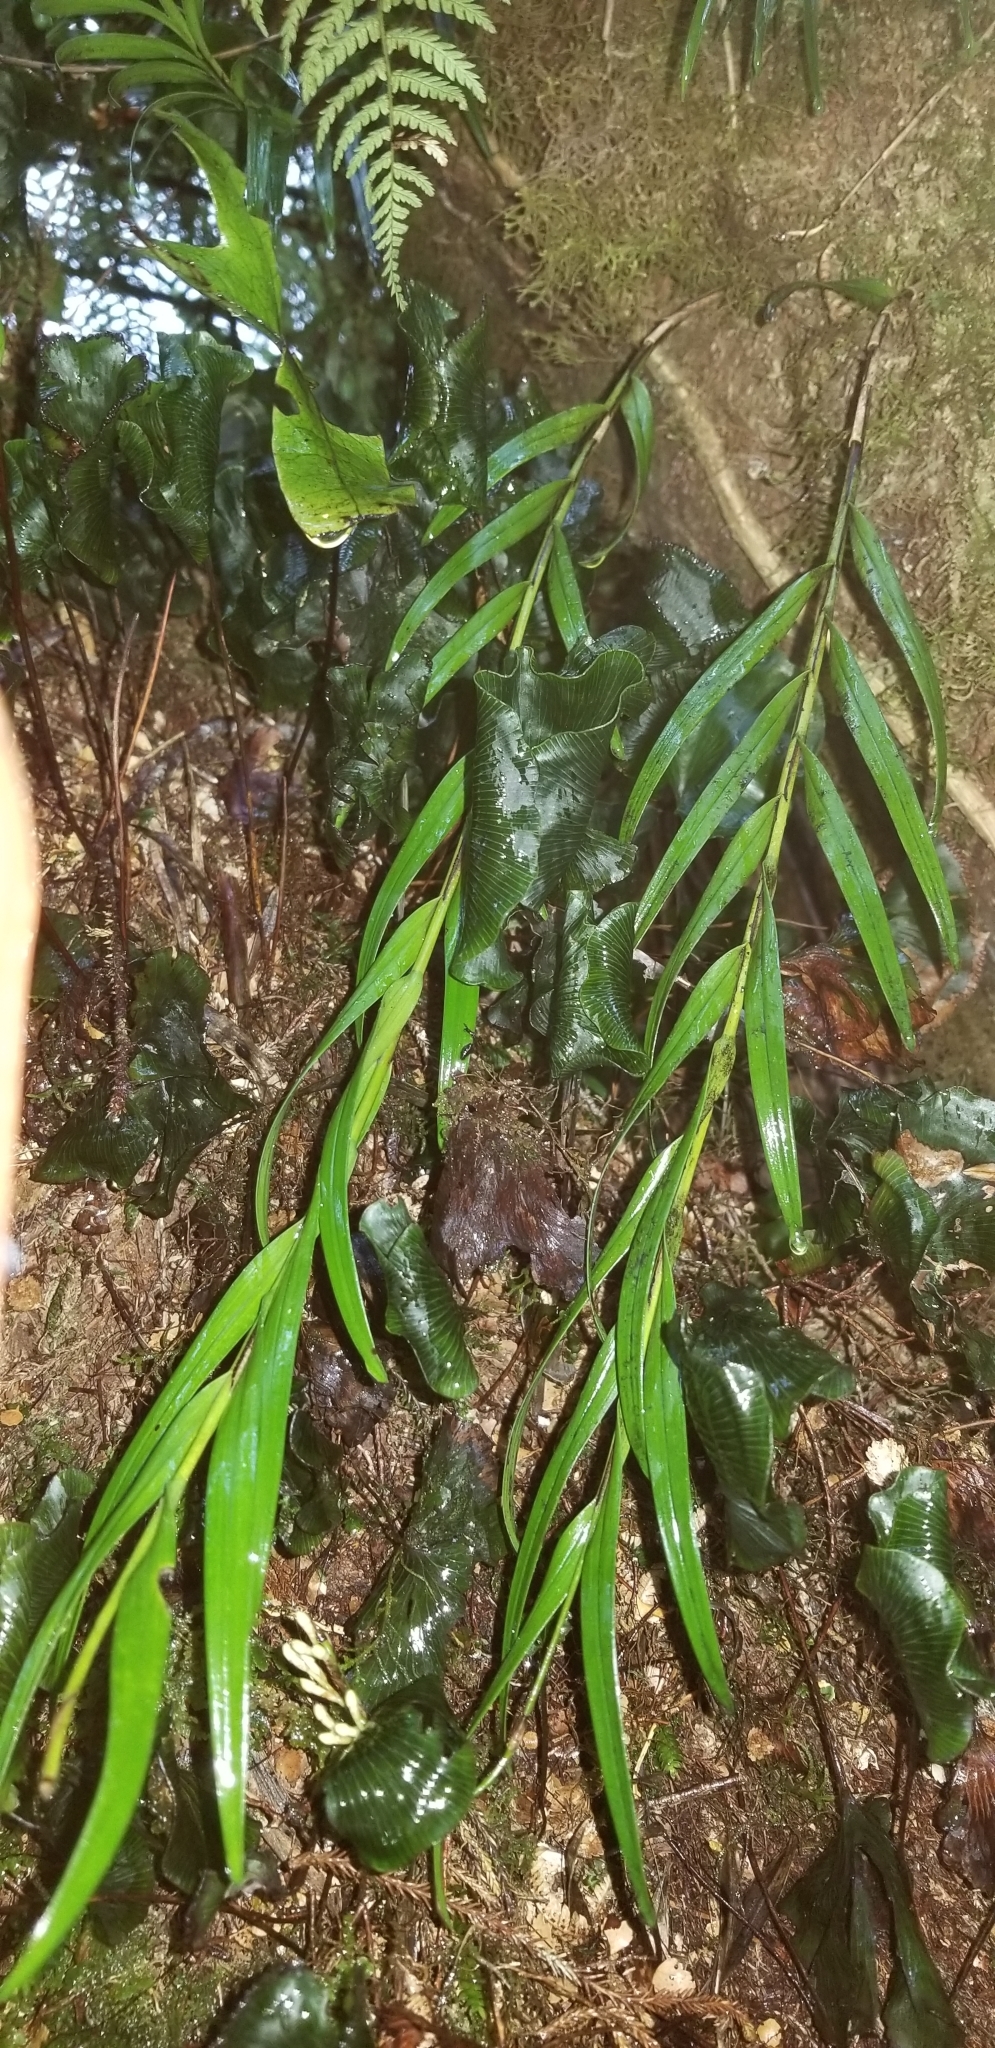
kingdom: Plantae
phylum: Tracheophyta
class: Liliopsida
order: Asparagales
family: Orchidaceae
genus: Earina
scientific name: Earina autumnalis
